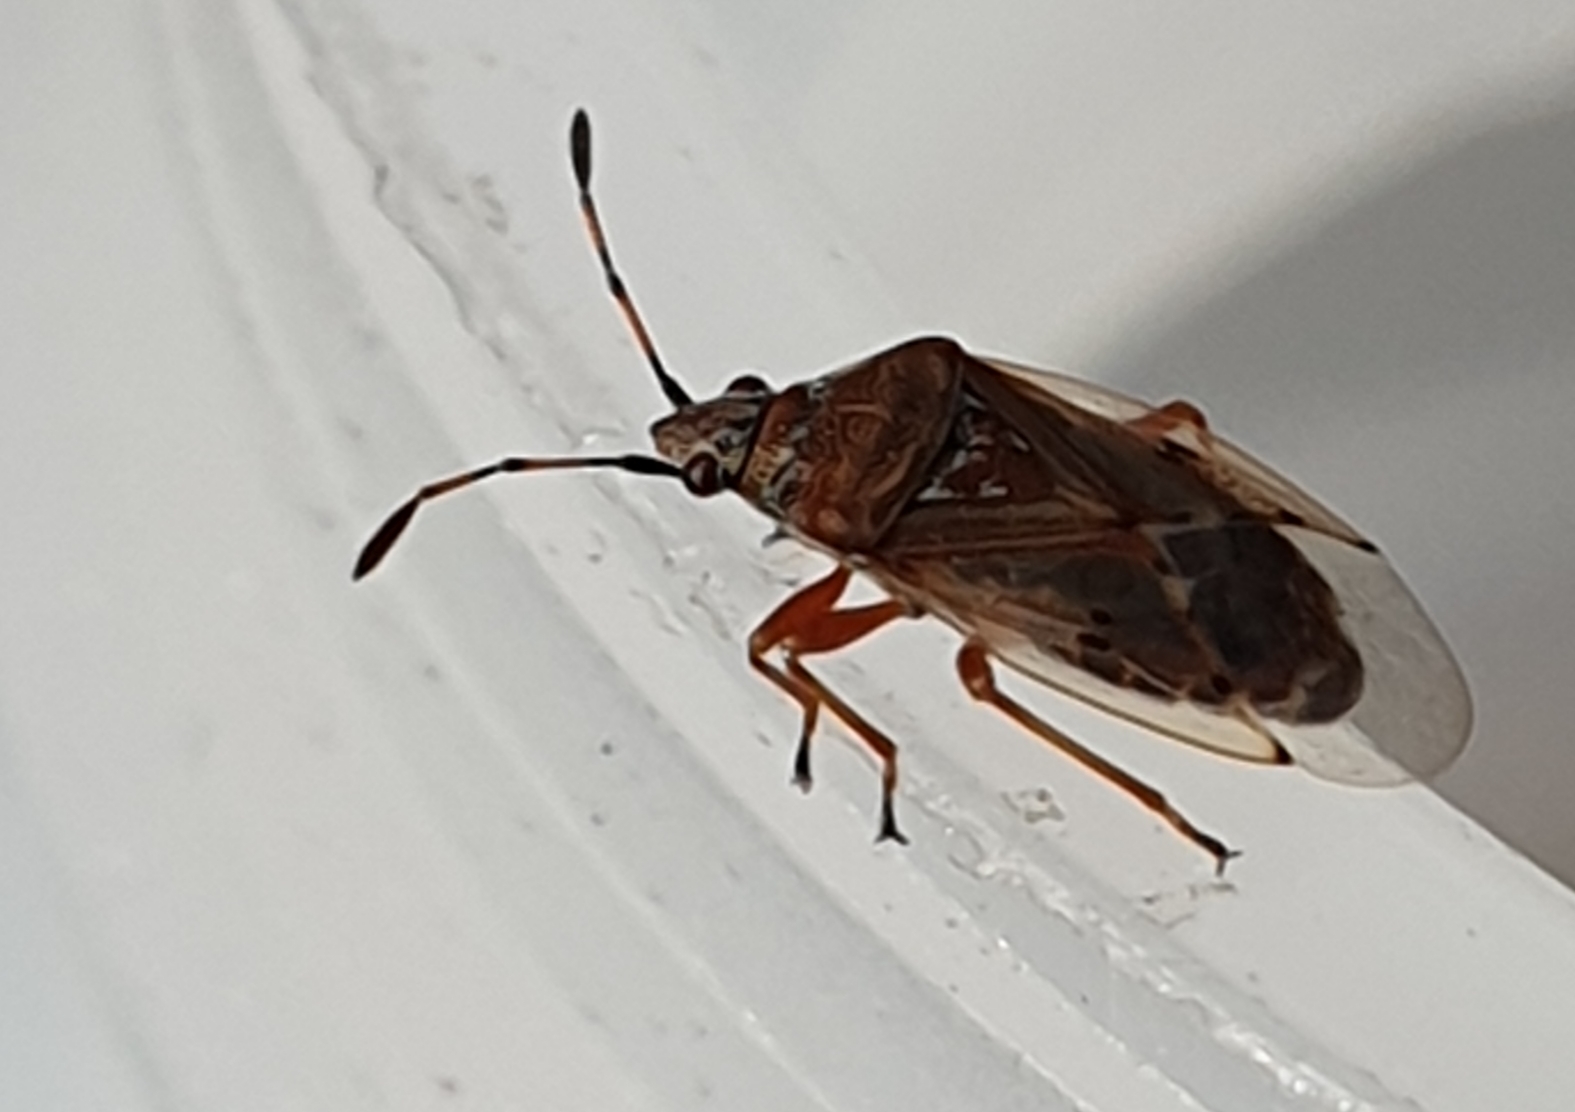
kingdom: Animalia
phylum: Arthropoda
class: Insecta
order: Hemiptera
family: Lygaeidae
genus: Kleidocerys
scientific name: Kleidocerys resedae
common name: Birch catkin bug
